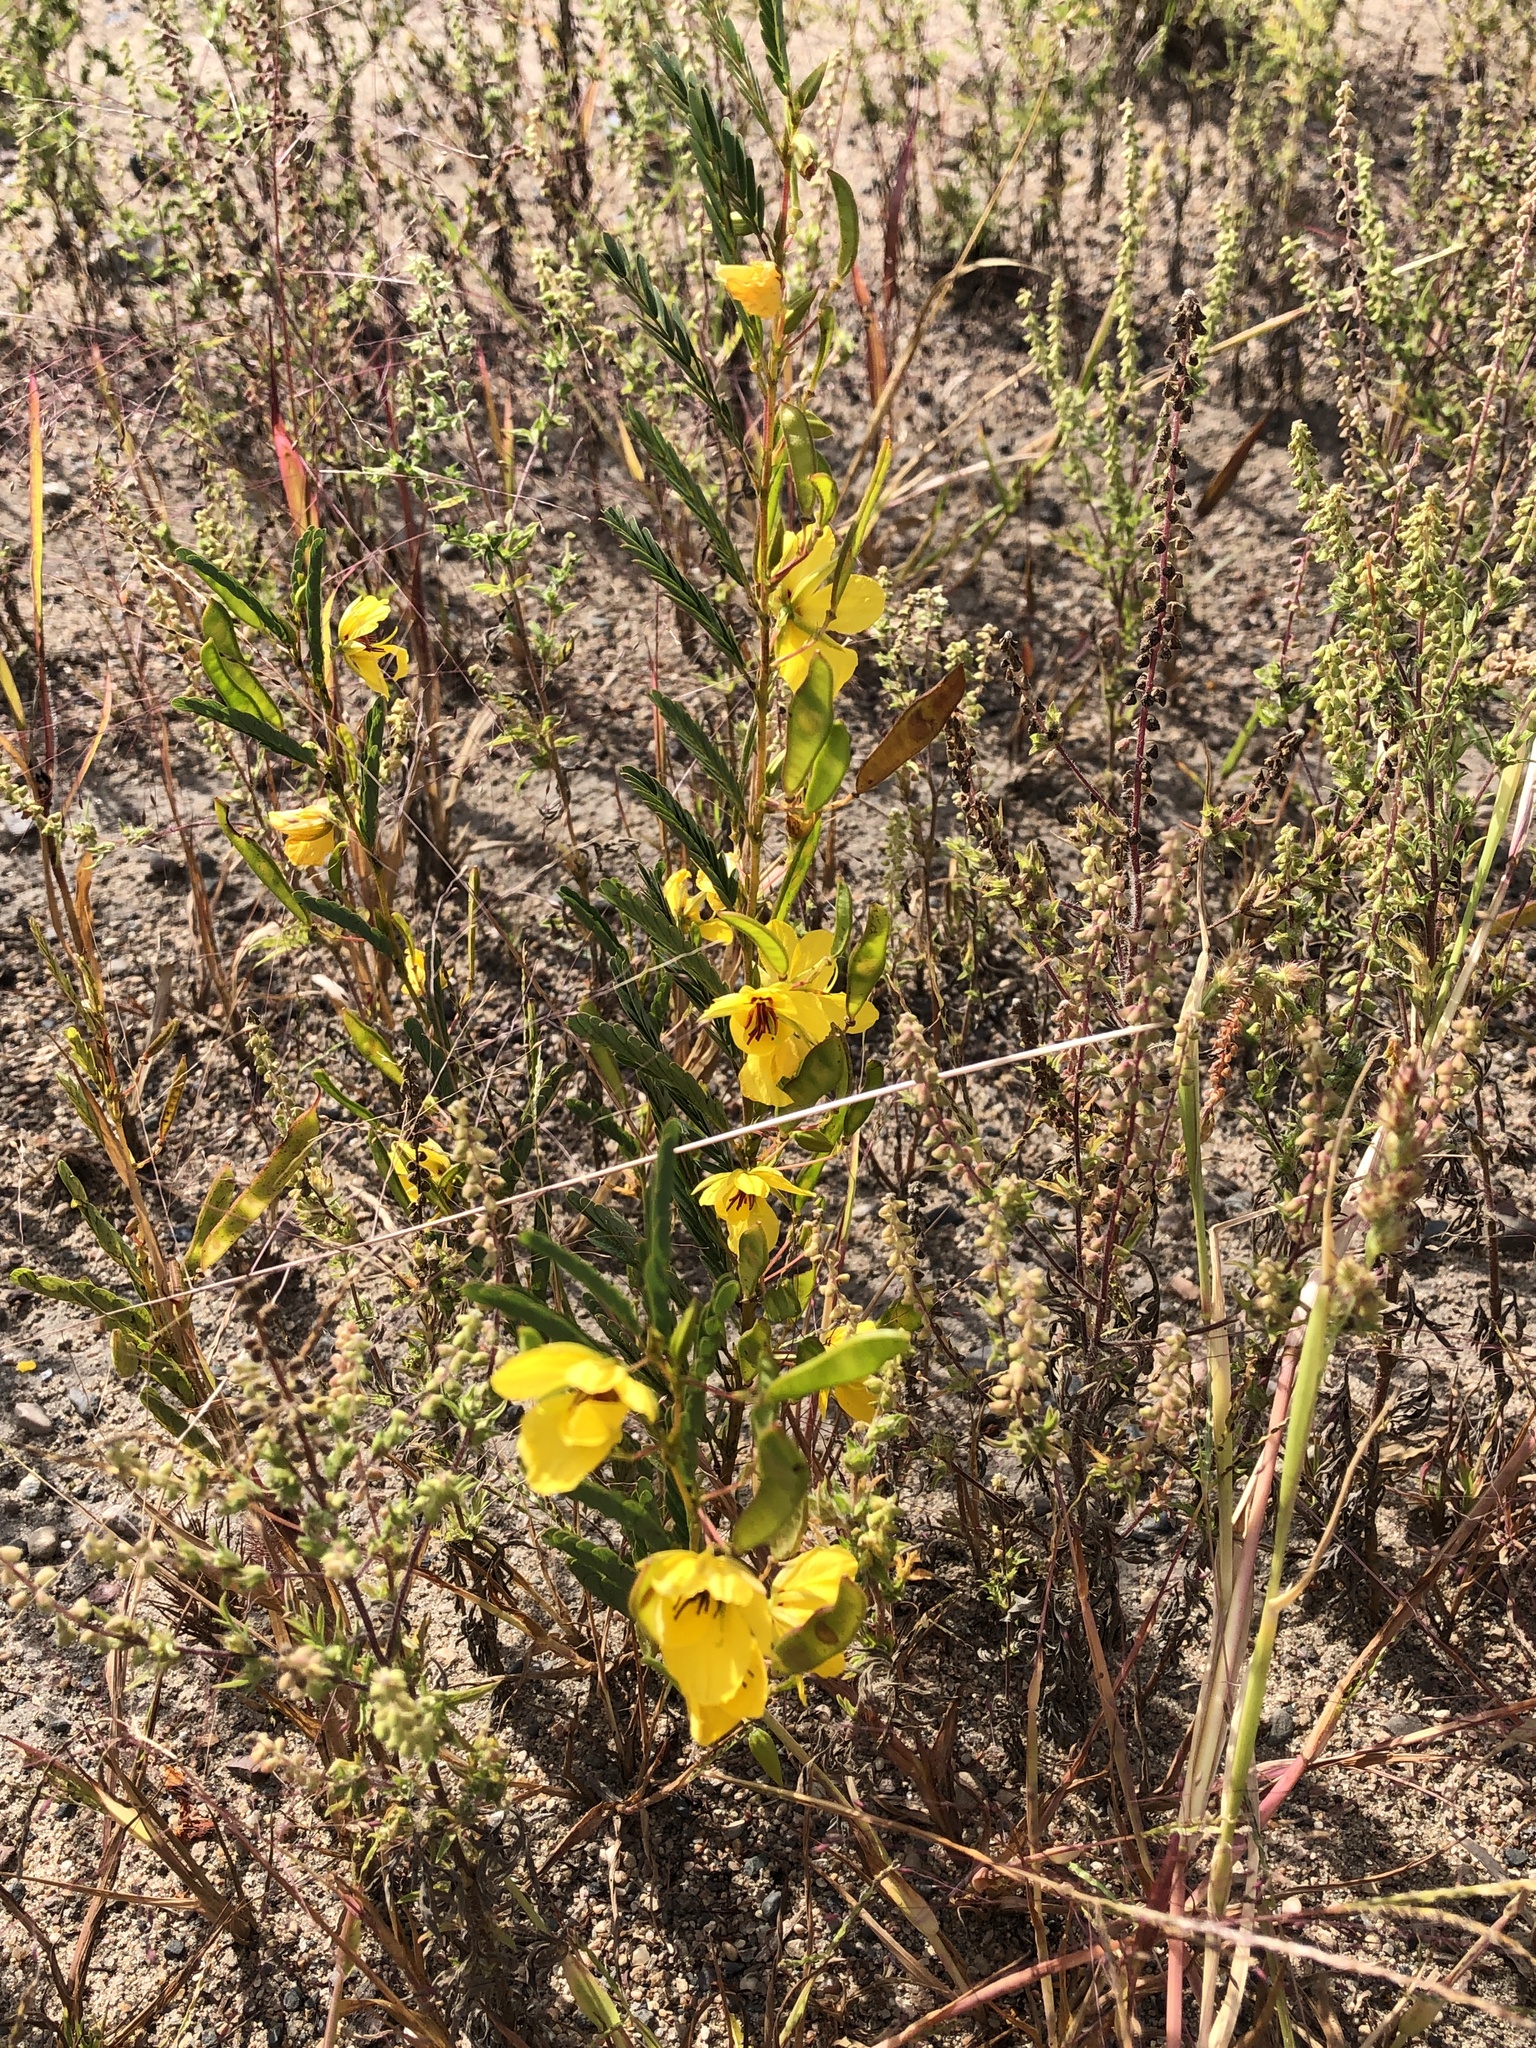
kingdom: Plantae
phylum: Tracheophyta
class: Magnoliopsida
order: Fabales
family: Fabaceae
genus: Chamaecrista
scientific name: Chamaecrista fasciculata
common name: Golden cassia
